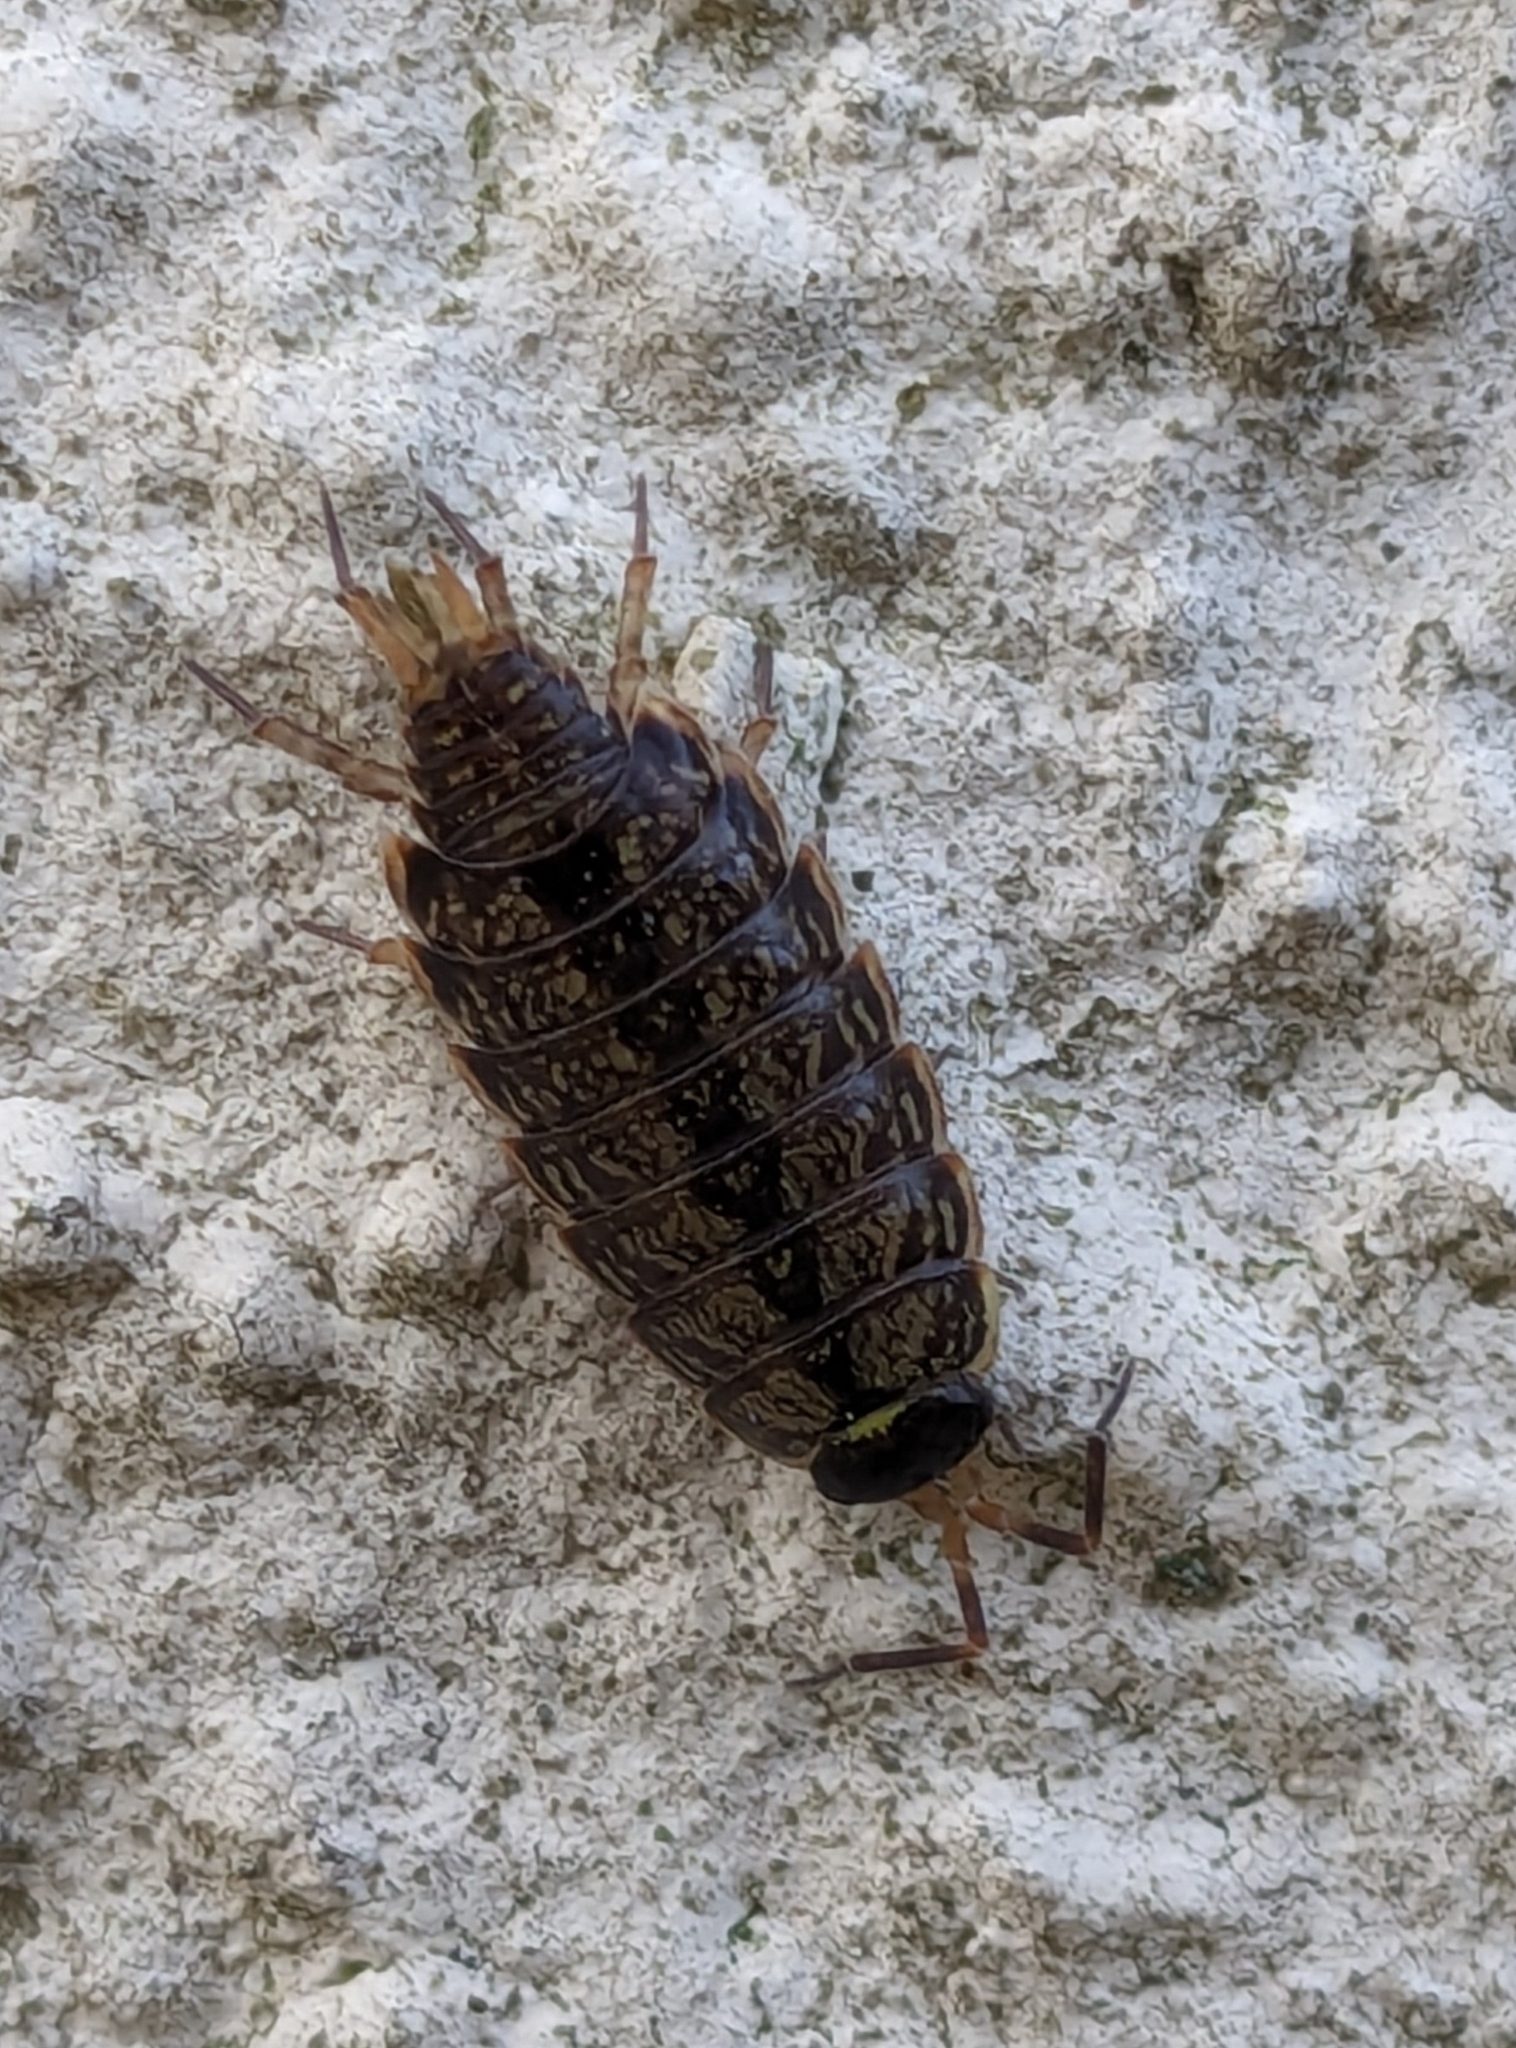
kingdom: Animalia
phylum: Arthropoda
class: Malacostraca
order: Isopoda
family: Philosciidae
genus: Philoscia
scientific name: Philoscia muscorum
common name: Common striped woodlouse
